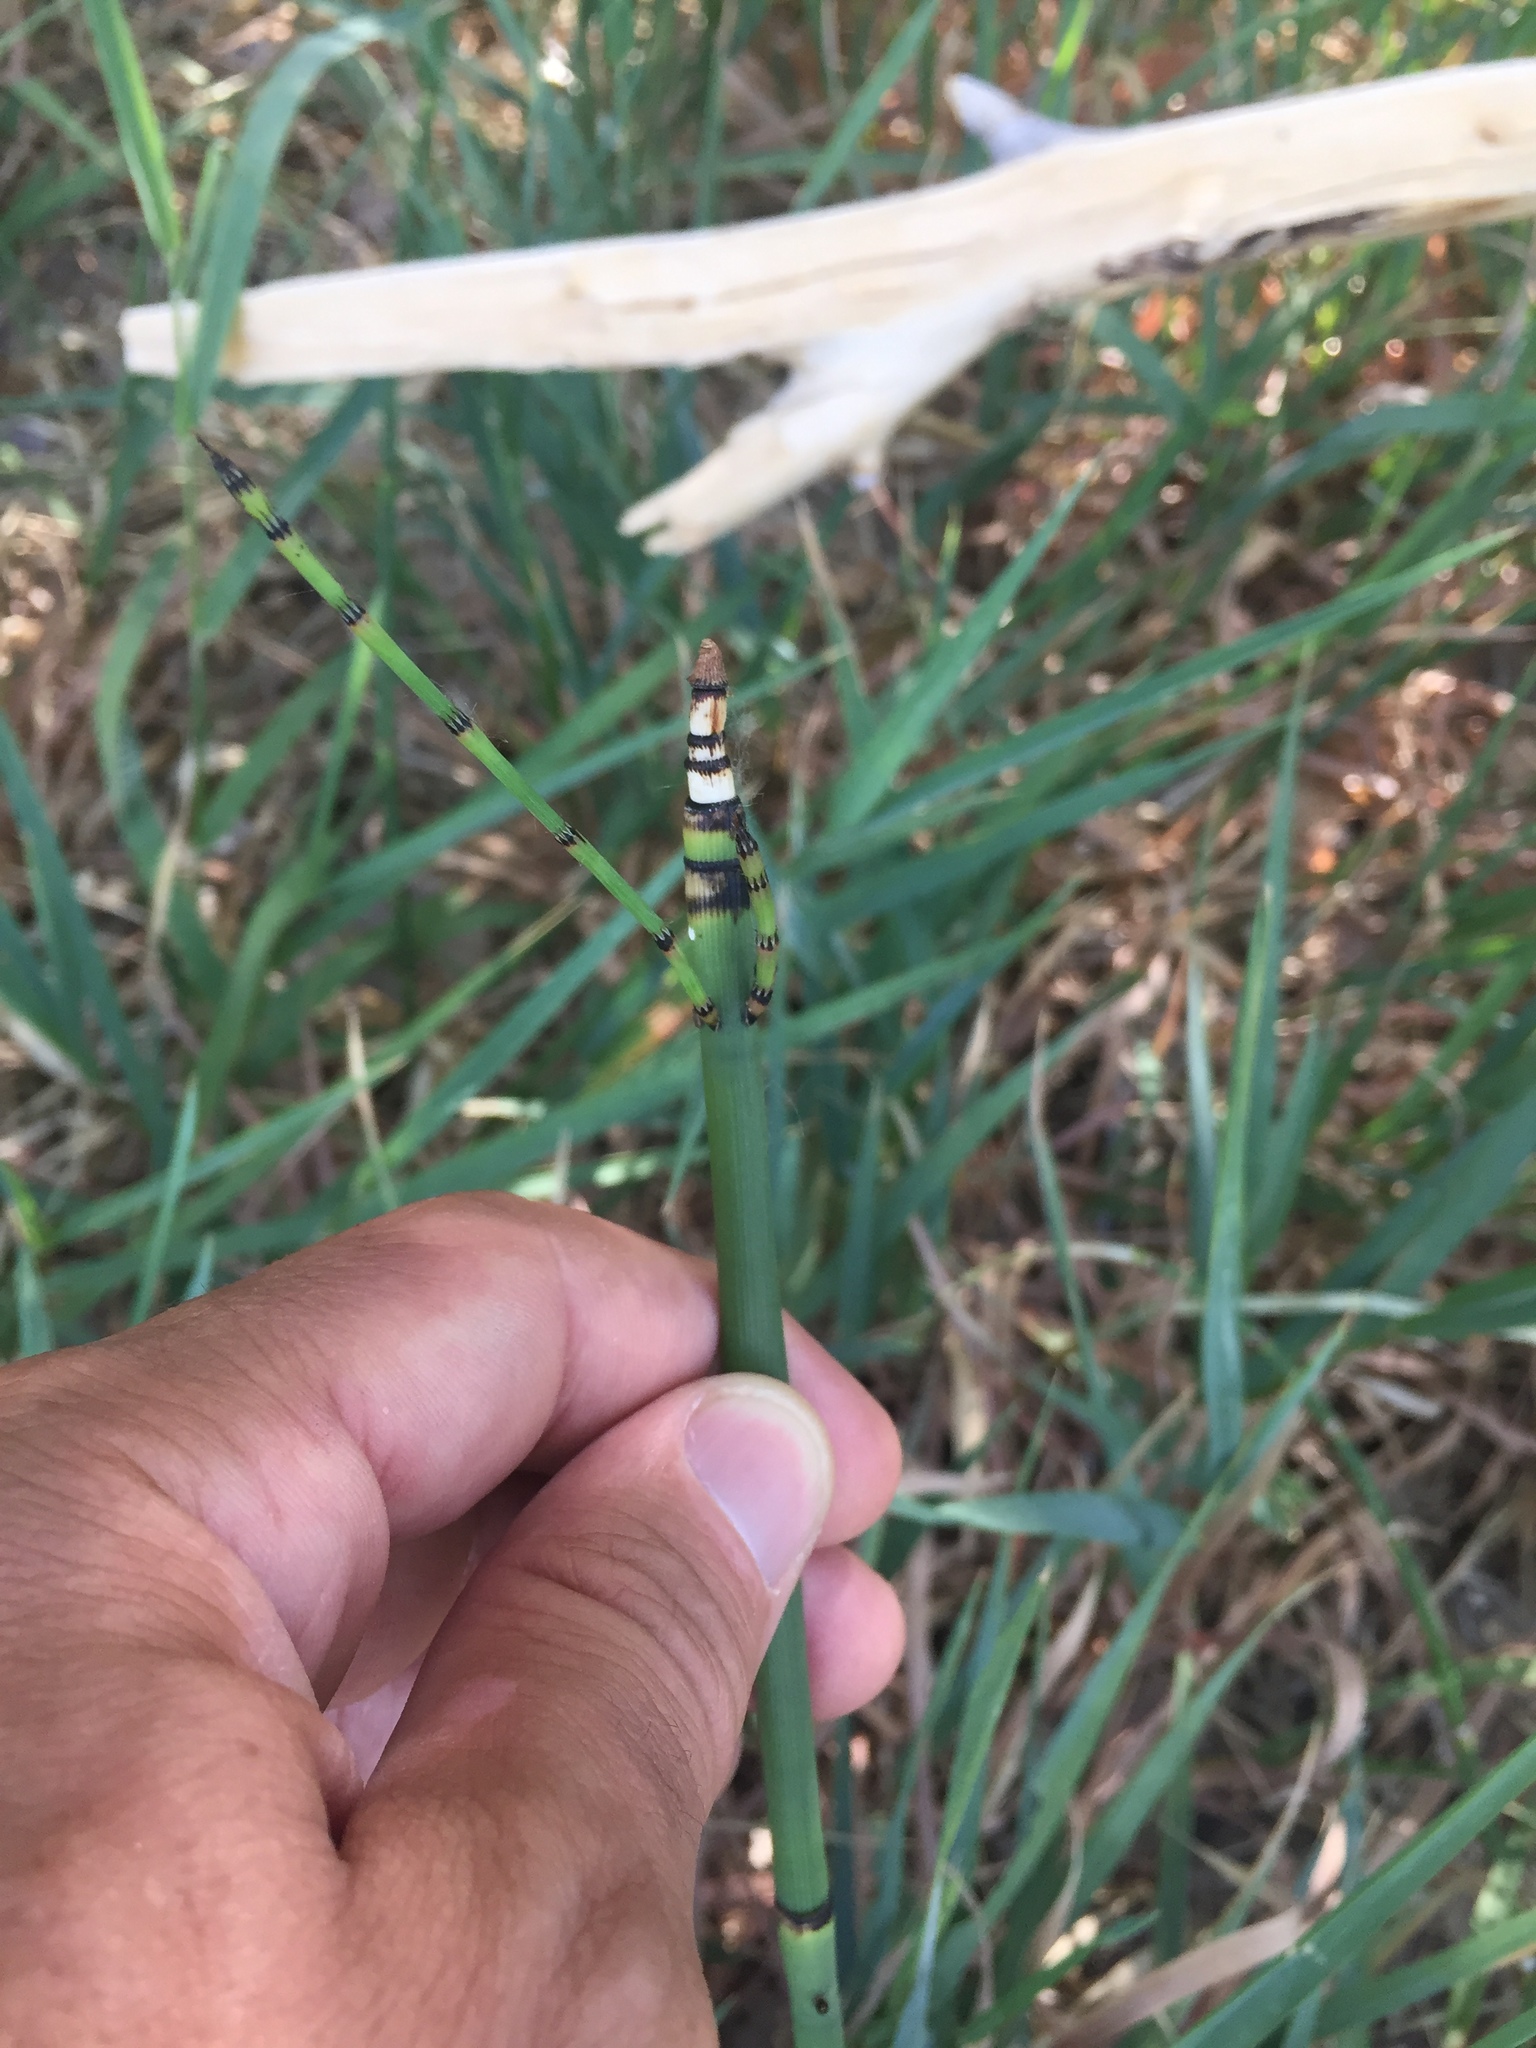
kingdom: Plantae
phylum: Tracheophyta
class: Polypodiopsida
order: Equisetales
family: Equisetaceae
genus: Equisetum
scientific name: Equisetum hyemale
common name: Rough horsetail
